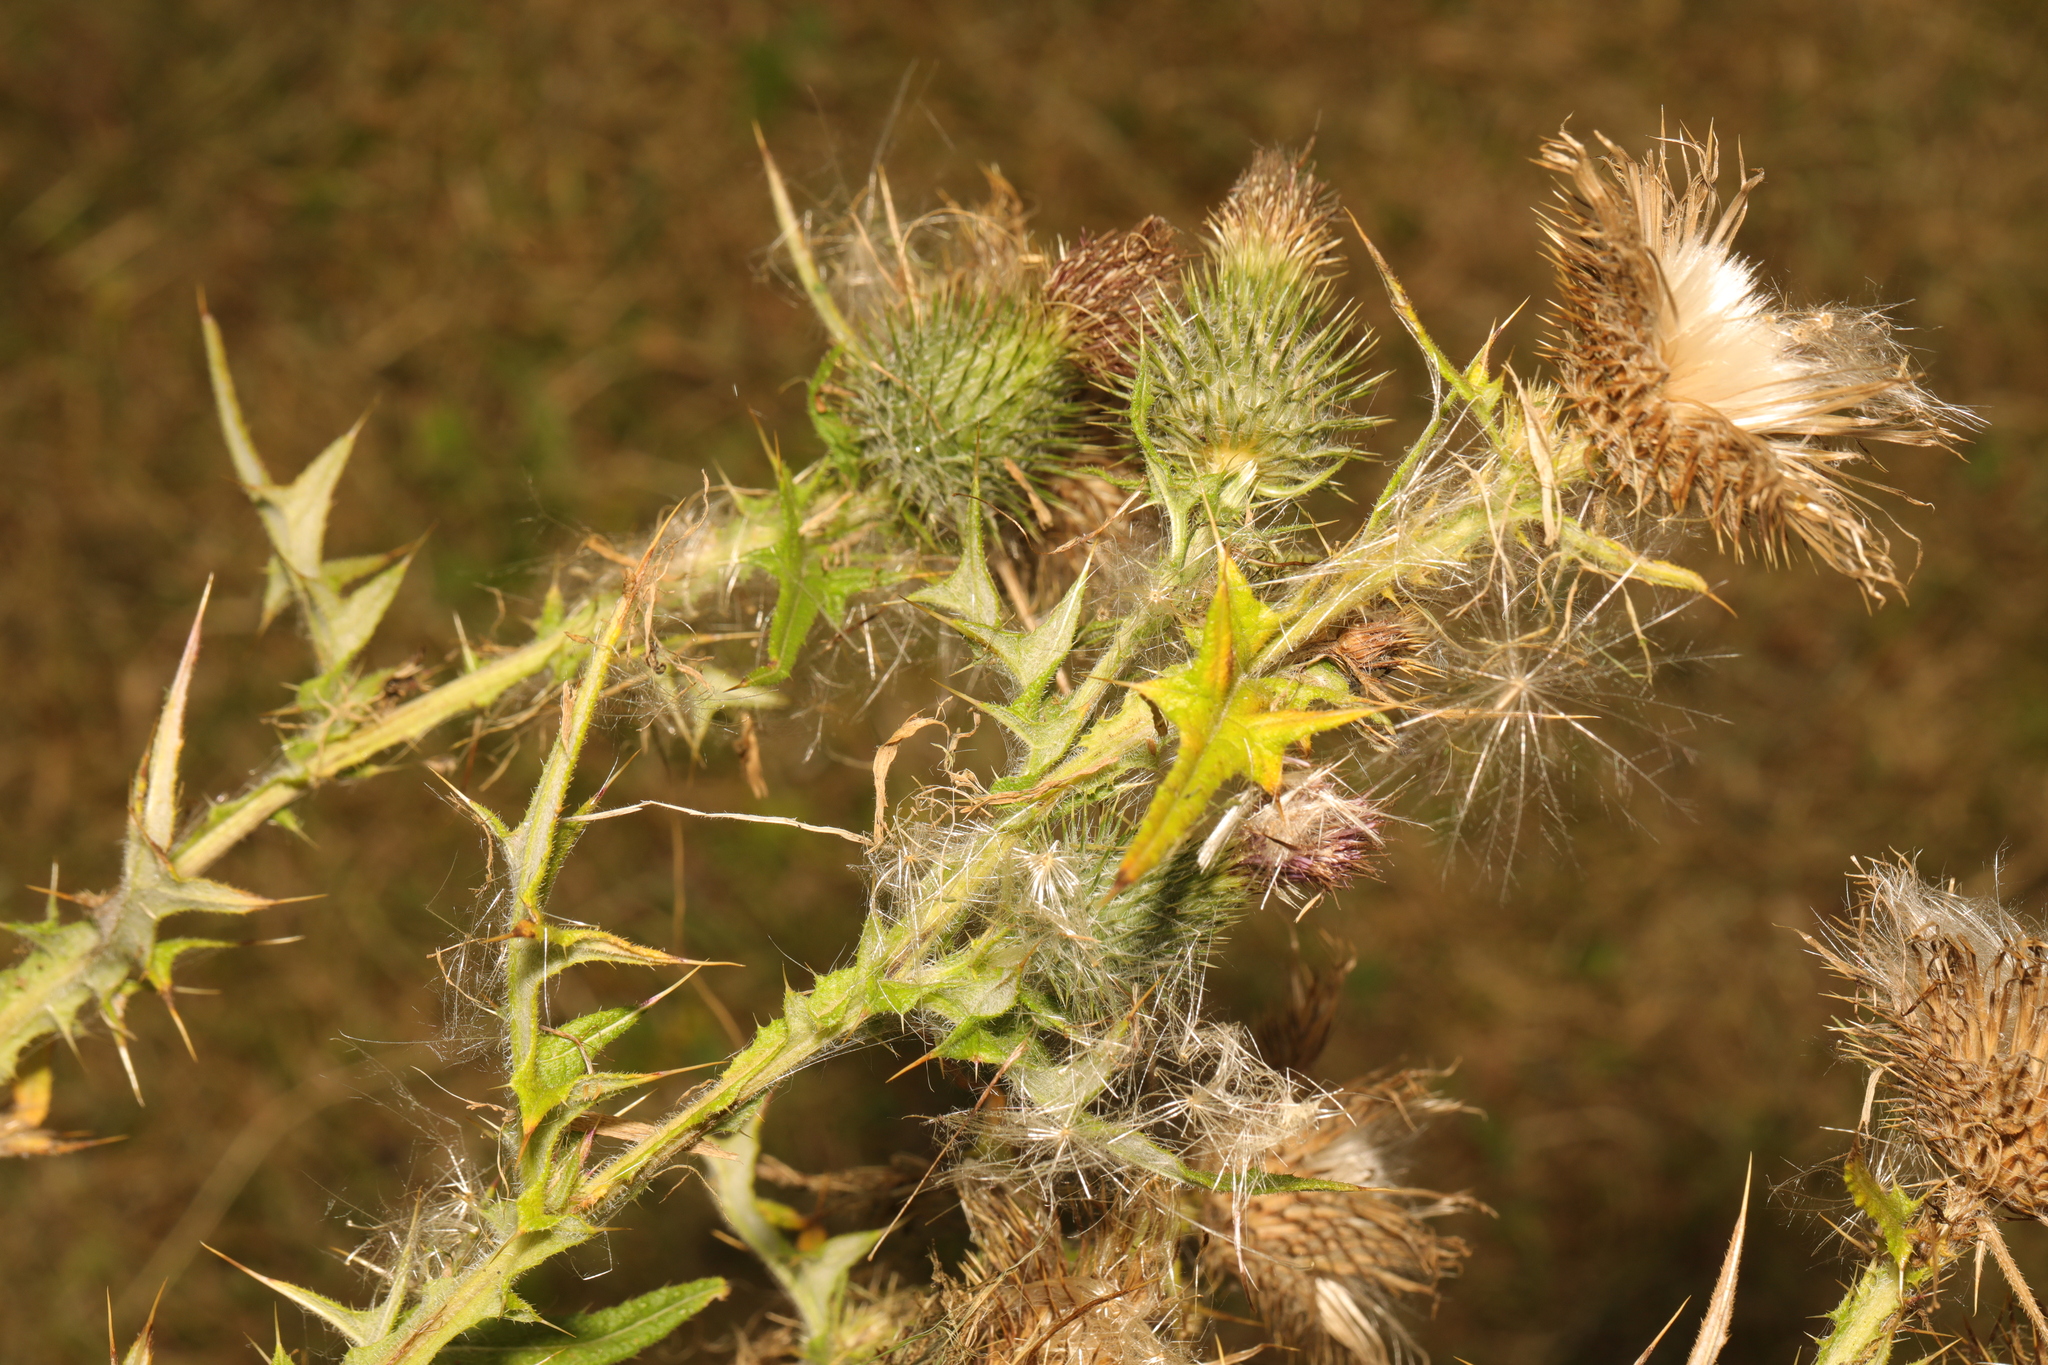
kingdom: Plantae
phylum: Tracheophyta
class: Magnoliopsida
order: Asterales
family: Asteraceae
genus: Cirsium
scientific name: Cirsium vulgare
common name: Bull thistle
